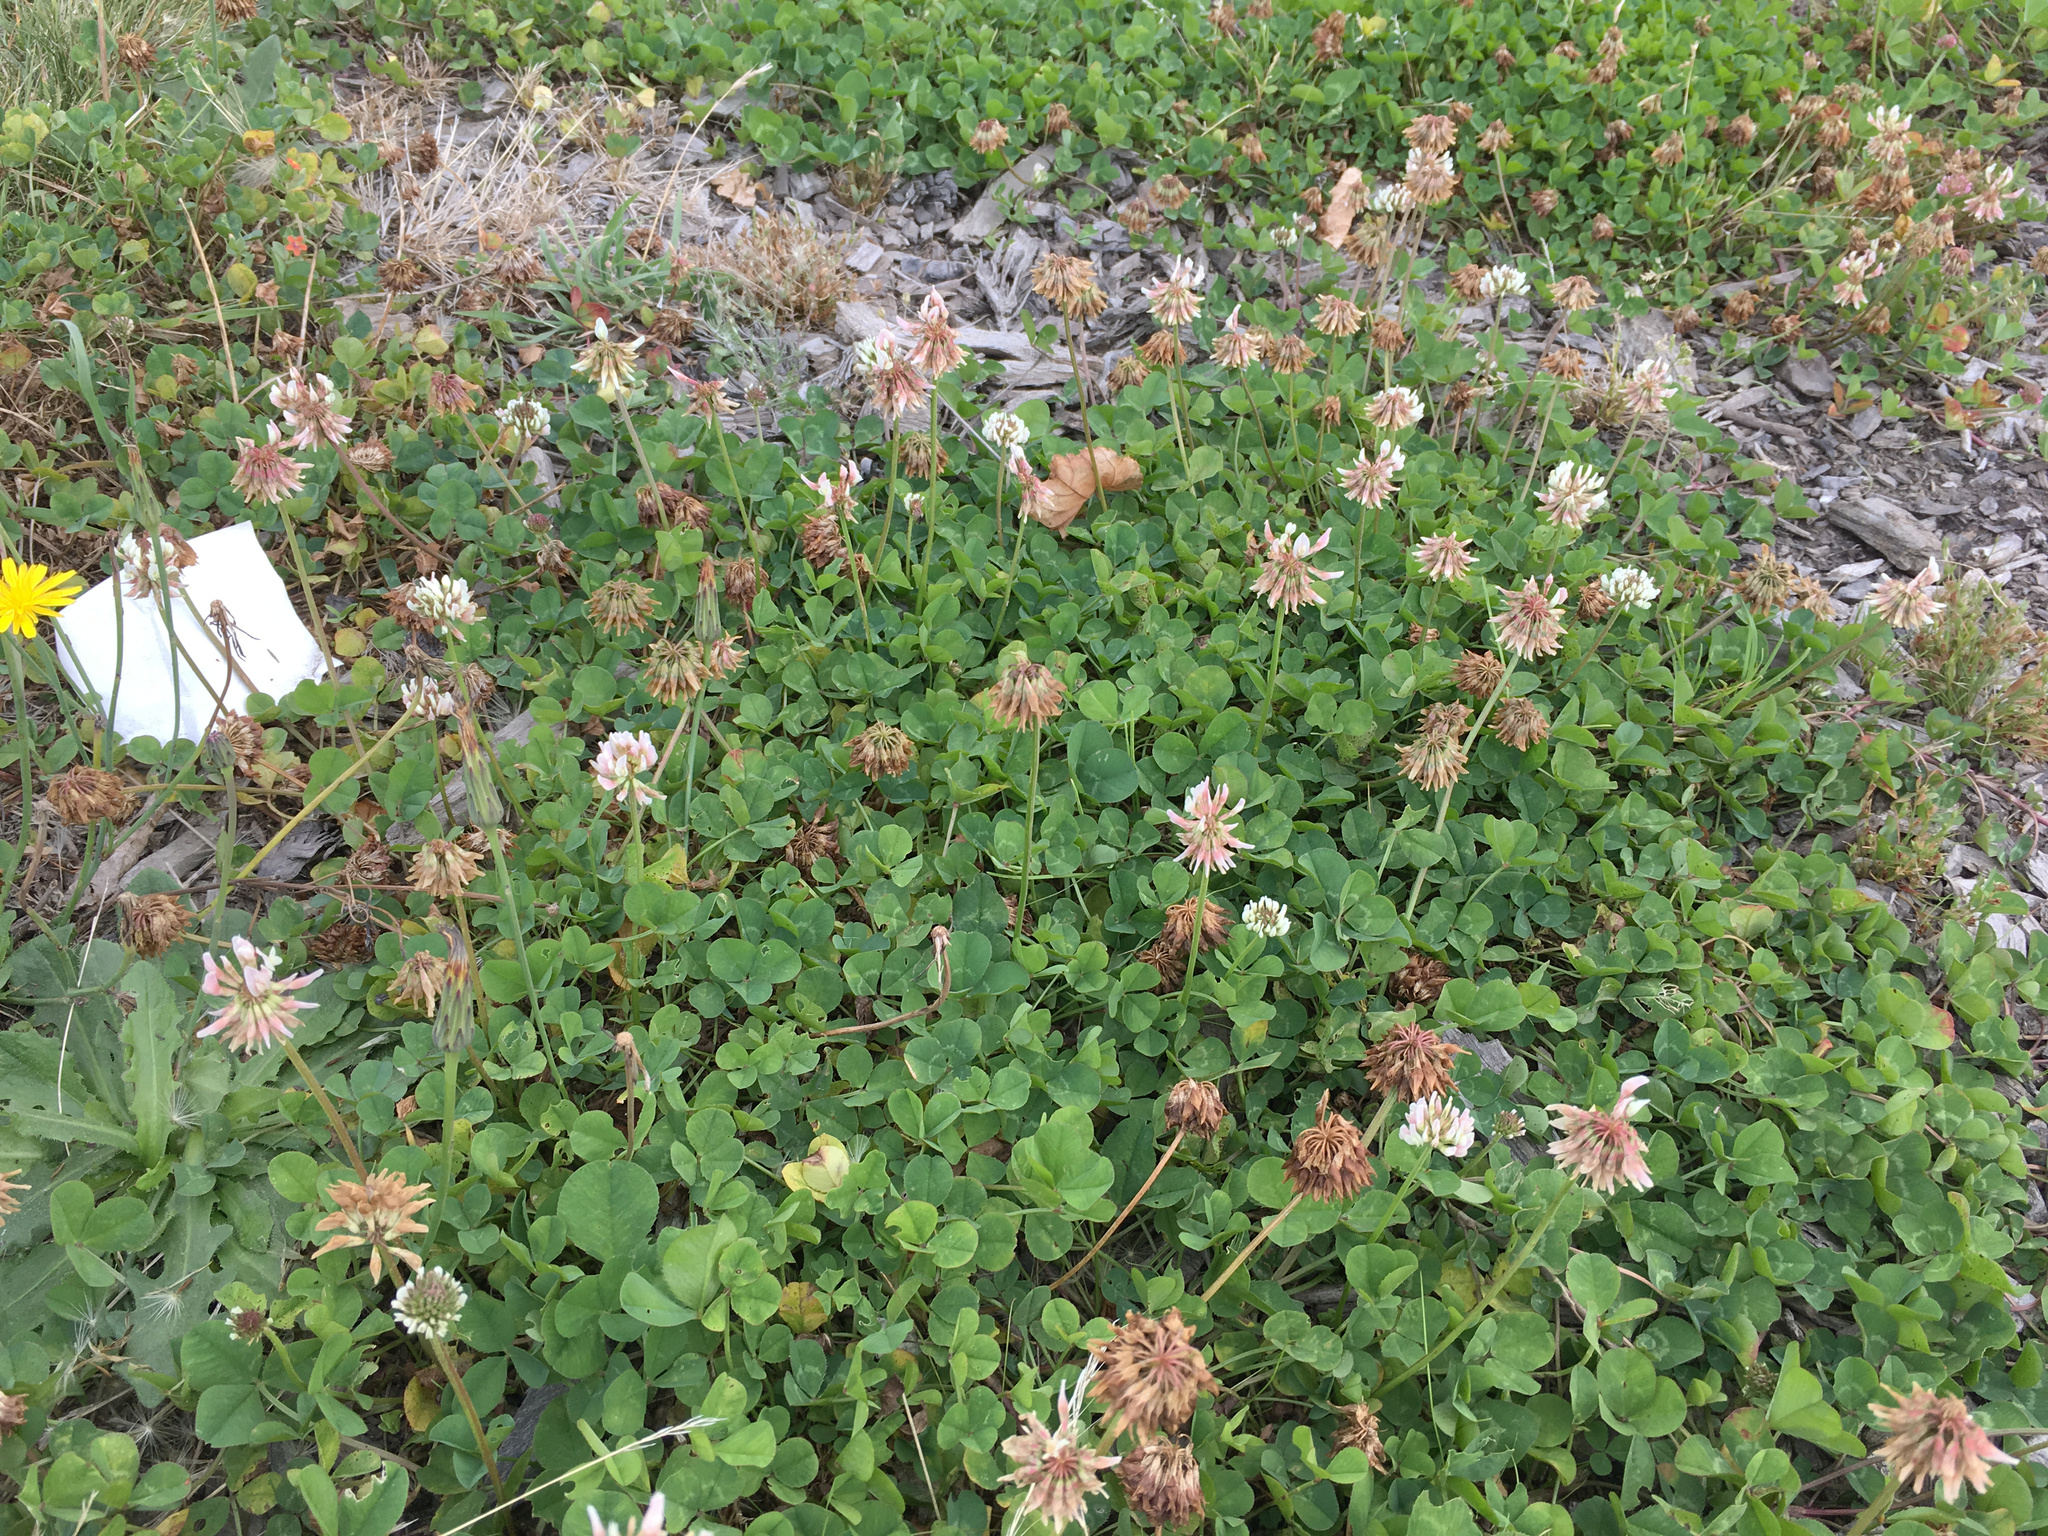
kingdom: Plantae
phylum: Tracheophyta
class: Magnoliopsida
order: Fabales
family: Fabaceae
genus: Trifolium
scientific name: Trifolium repens
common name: White clover
